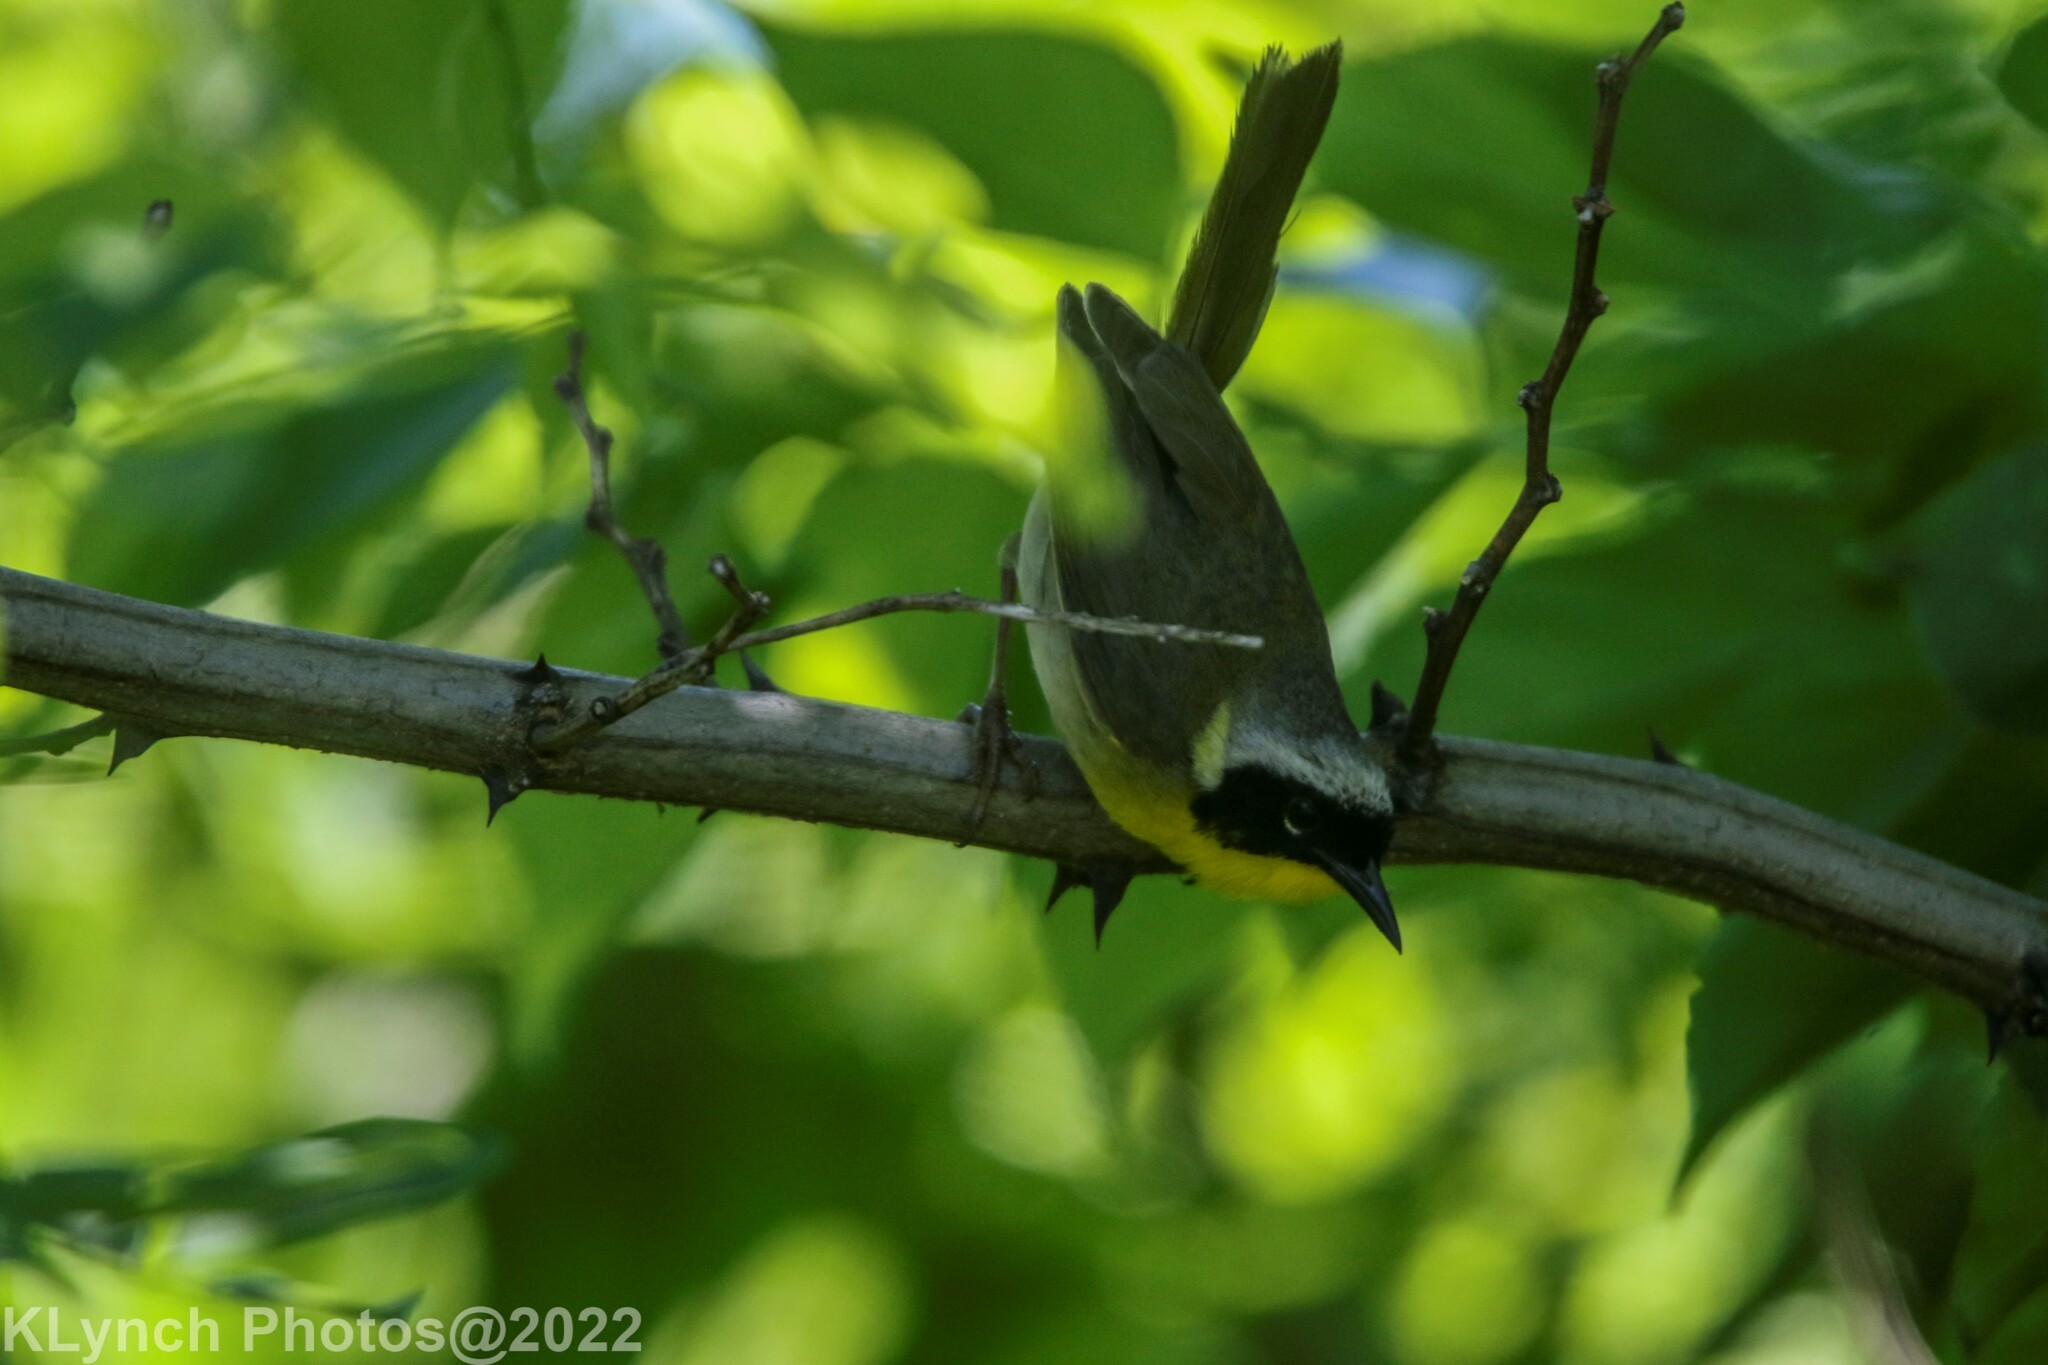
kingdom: Animalia
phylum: Chordata
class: Aves
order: Passeriformes
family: Parulidae
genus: Geothlypis
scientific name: Geothlypis trichas
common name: Common yellowthroat
